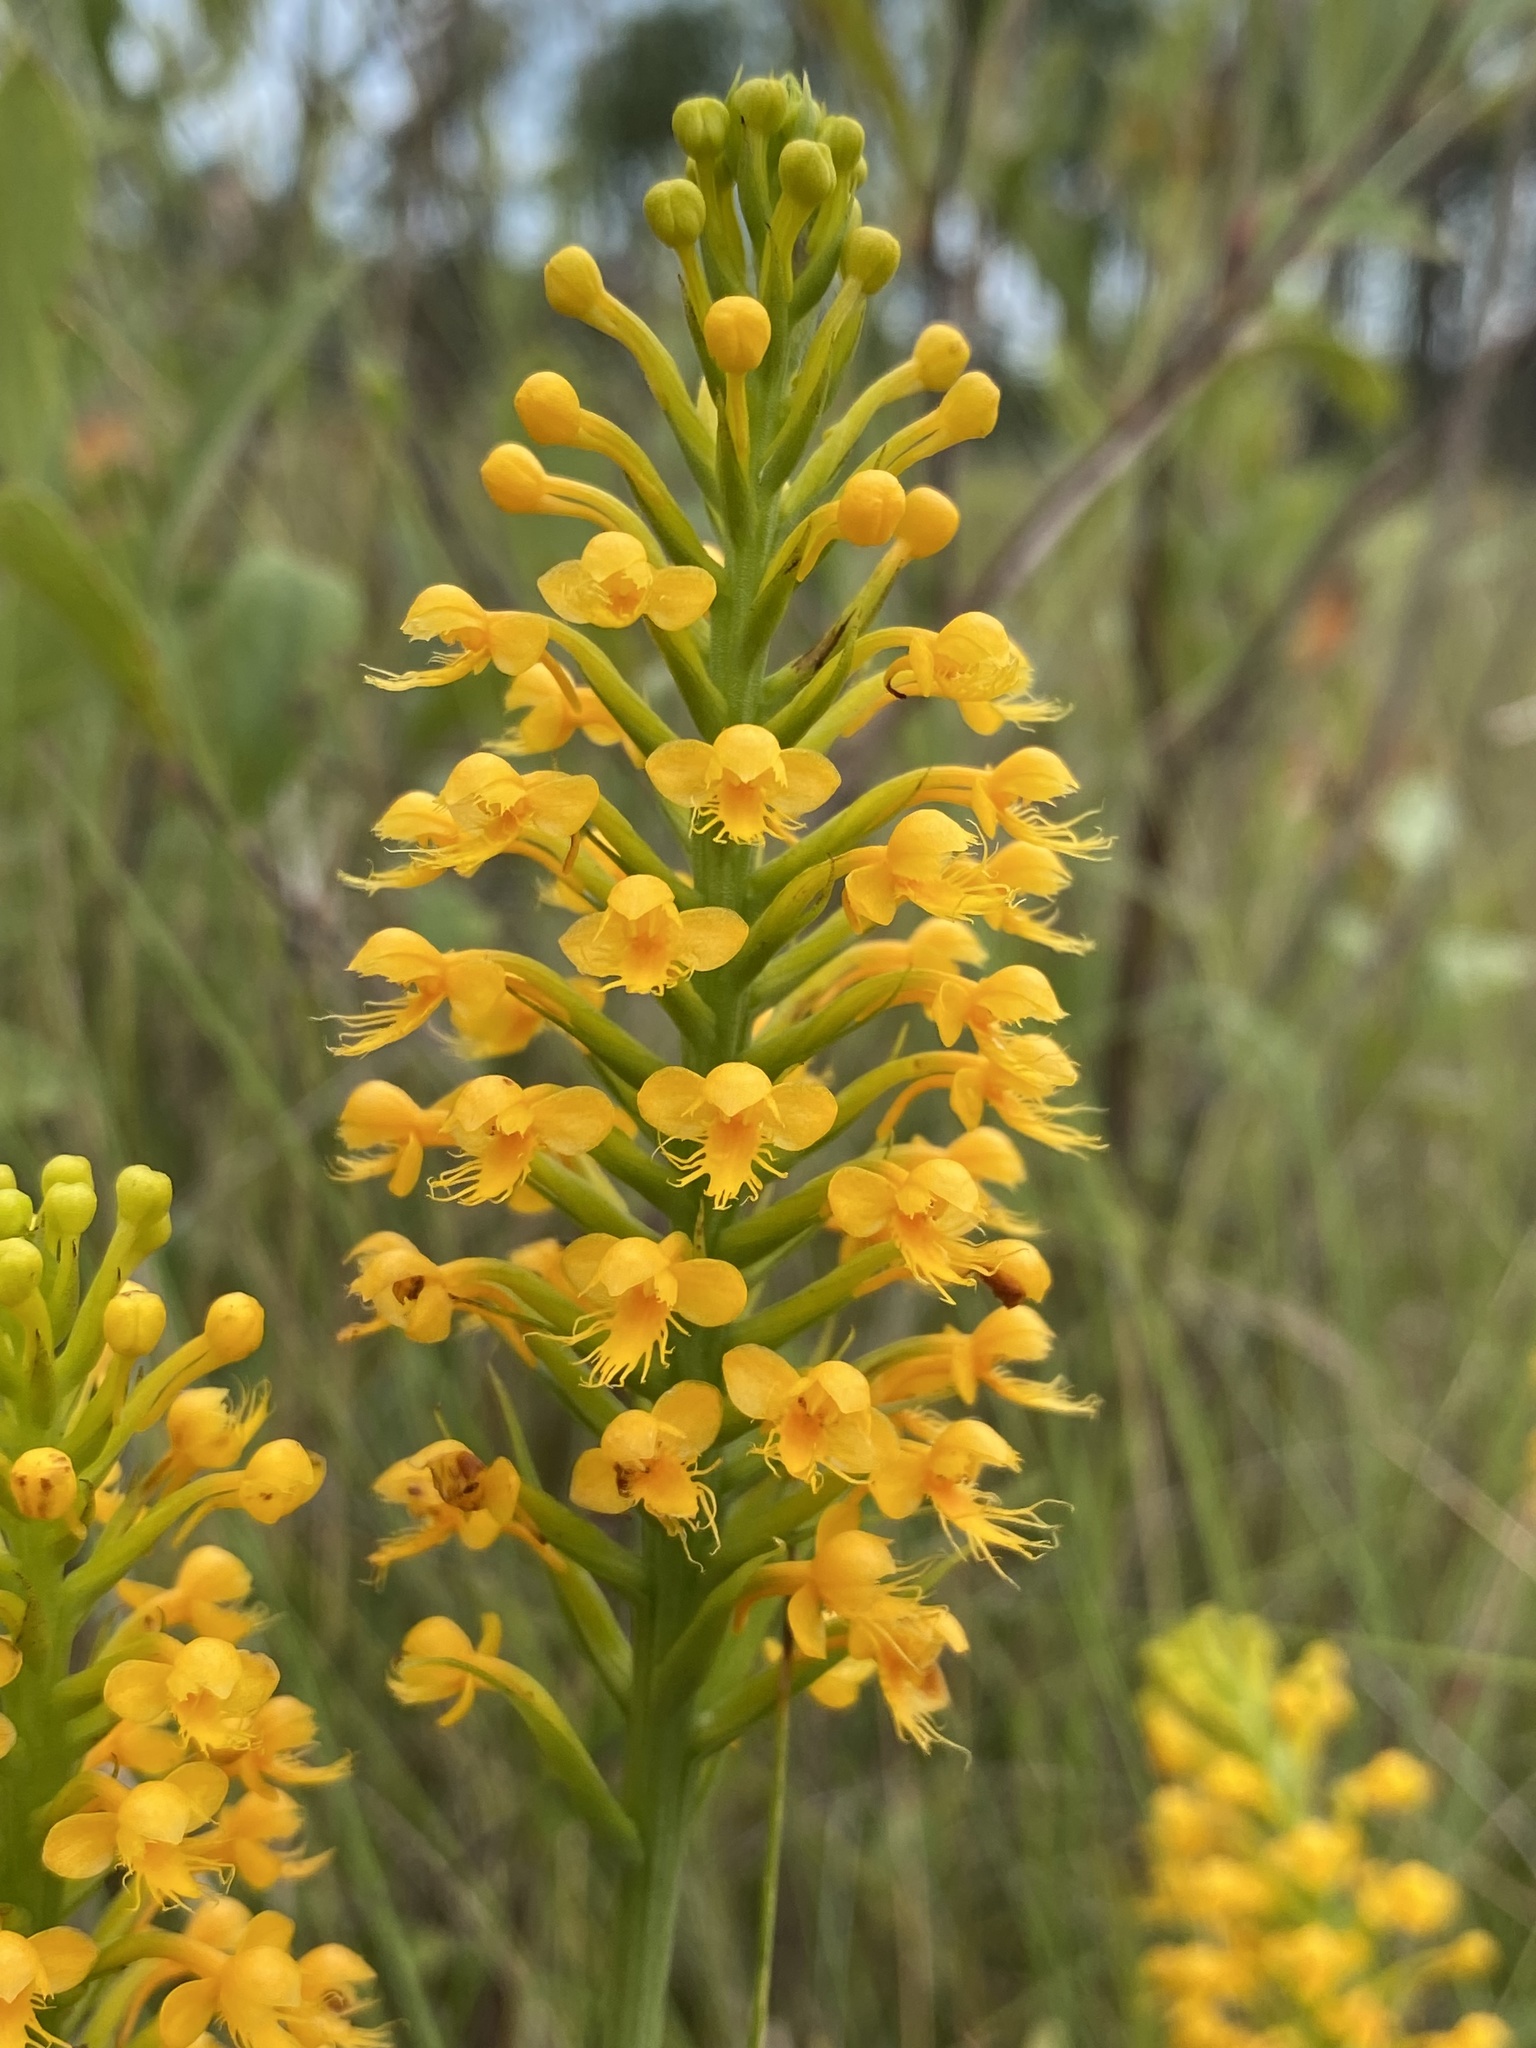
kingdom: Plantae
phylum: Tracheophyta
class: Liliopsida
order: Asparagales
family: Orchidaceae
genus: Platanthera
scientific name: Platanthera cristata
